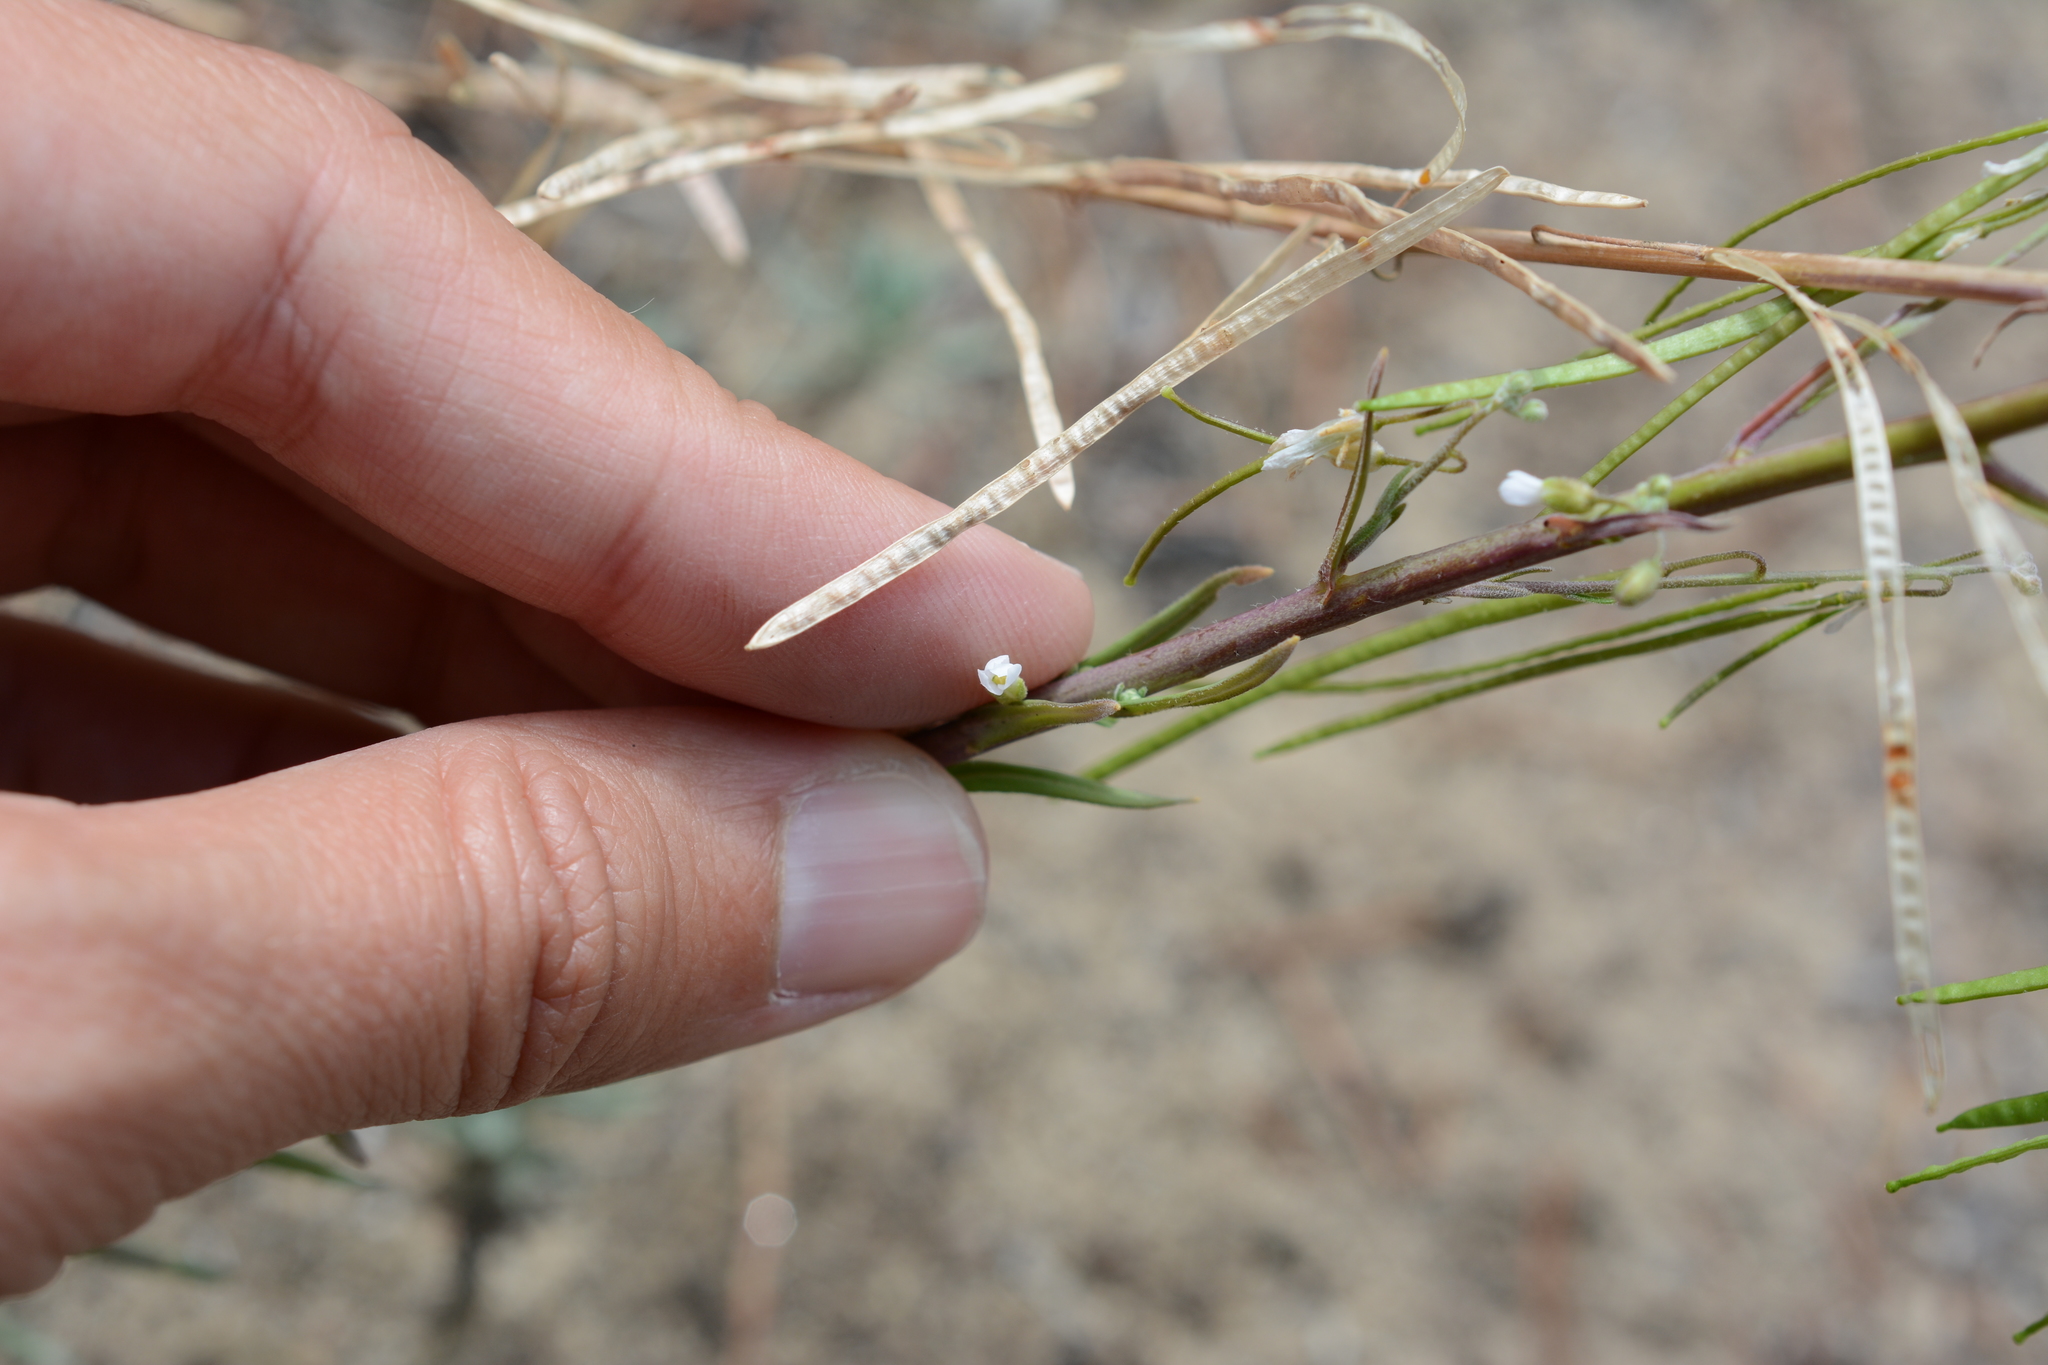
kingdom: Plantae
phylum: Tracheophyta
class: Magnoliopsida
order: Brassicales
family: Brassicaceae
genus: Boechera
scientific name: Boechera retrofracta
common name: Dangling suncress
